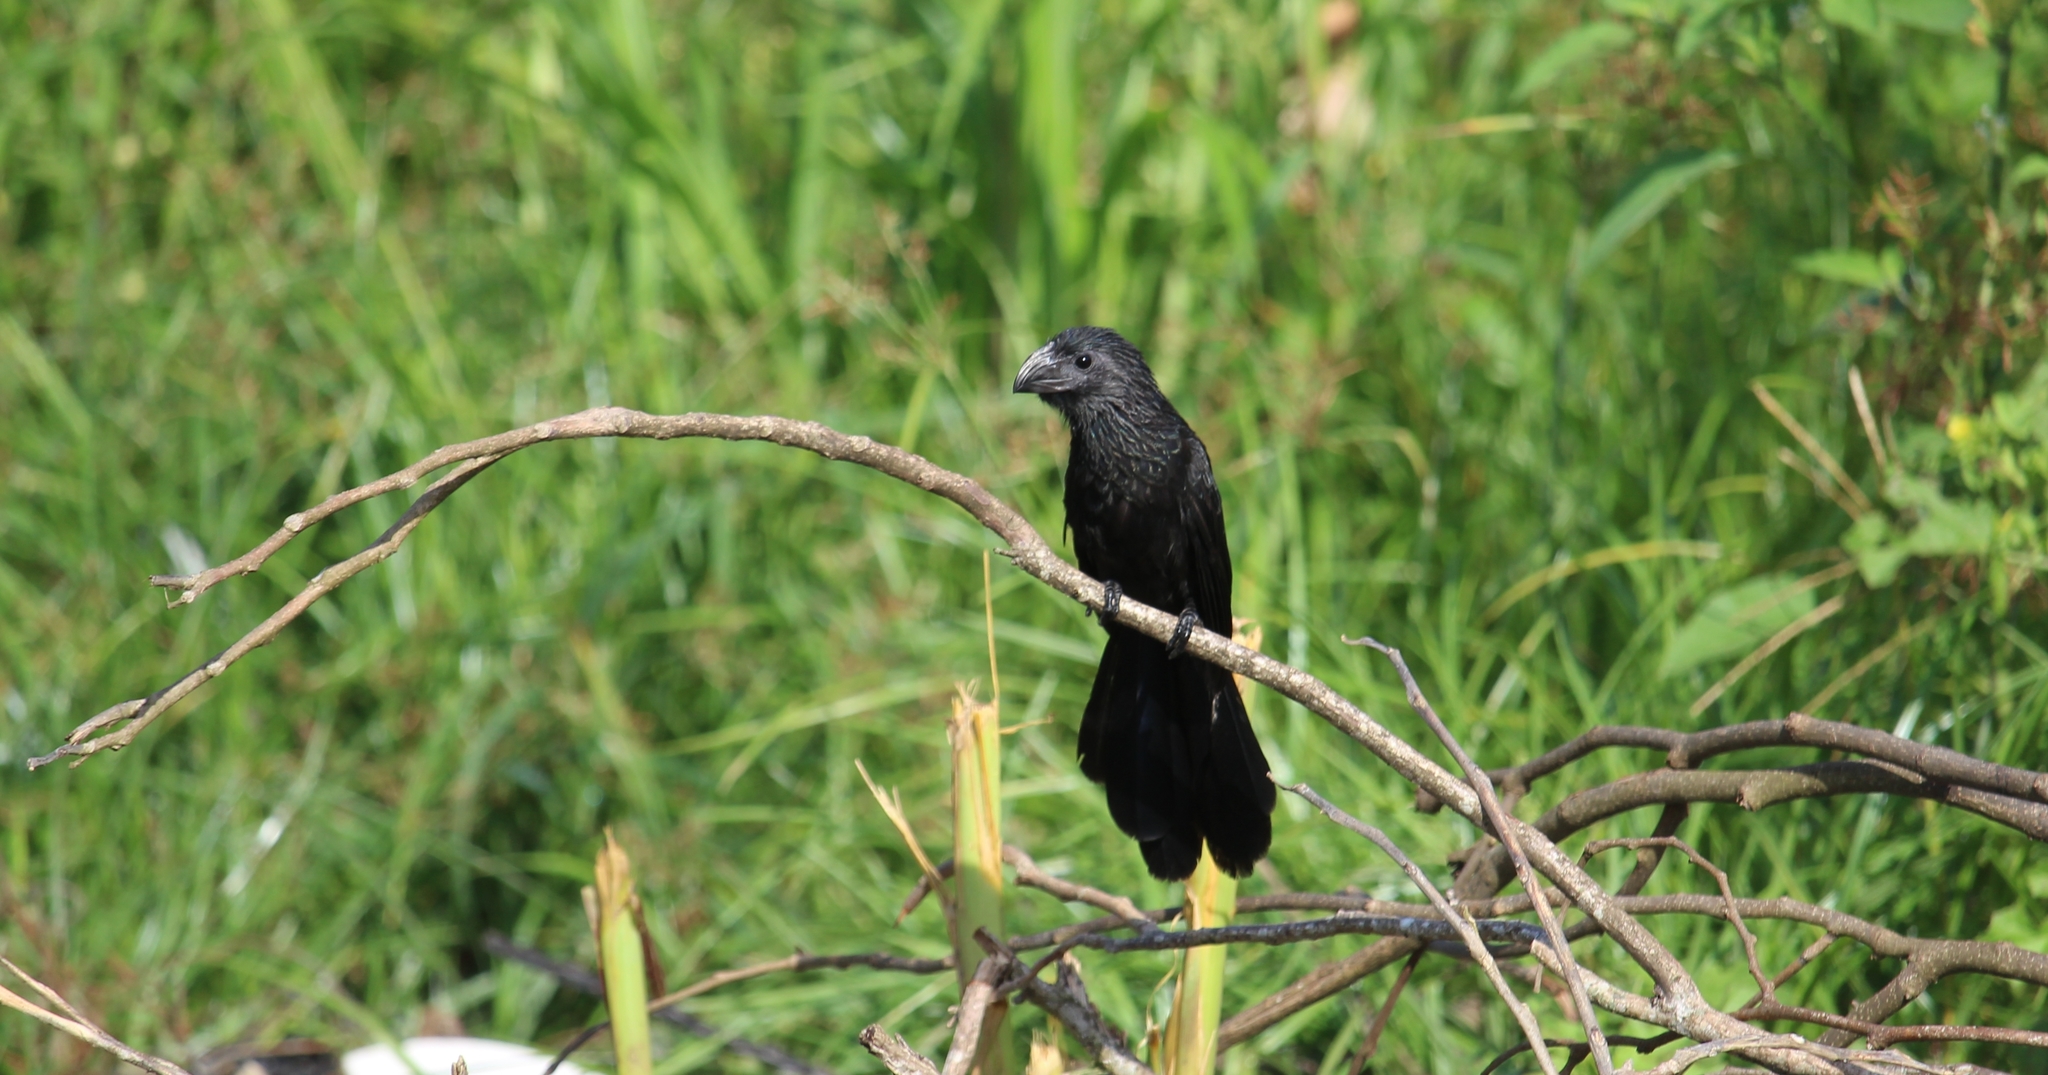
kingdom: Animalia
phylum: Chordata
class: Aves
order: Cuculiformes
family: Cuculidae
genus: Crotophaga
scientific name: Crotophaga sulcirostris
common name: Groove-billed ani
